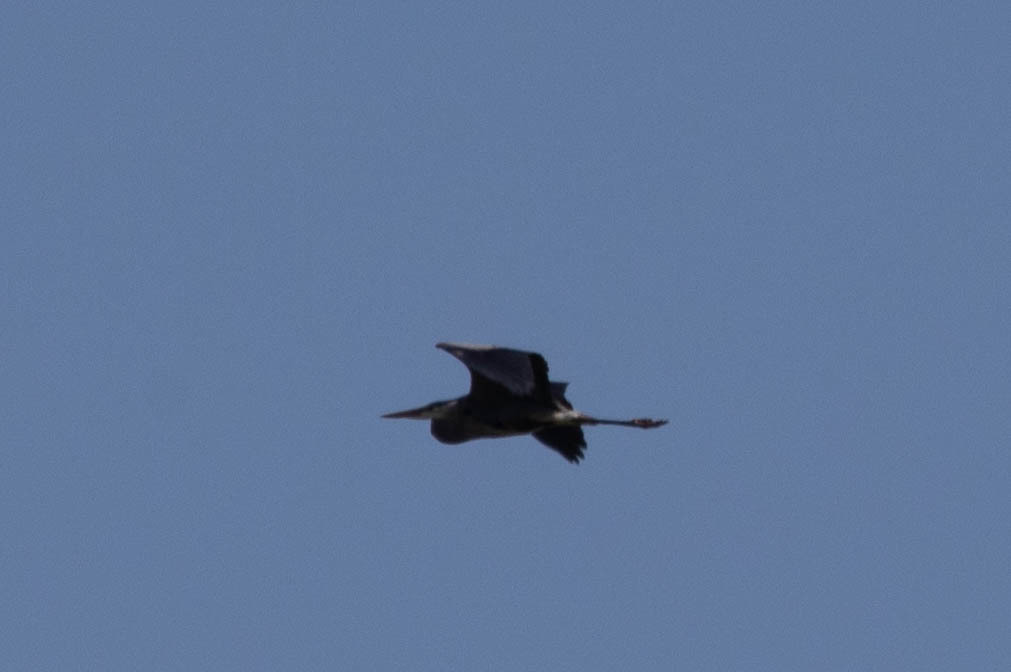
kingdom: Animalia
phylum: Chordata
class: Aves
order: Pelecaniformes
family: Ardeidae
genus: Ardea
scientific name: Ardea herodias
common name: Great blue heron
